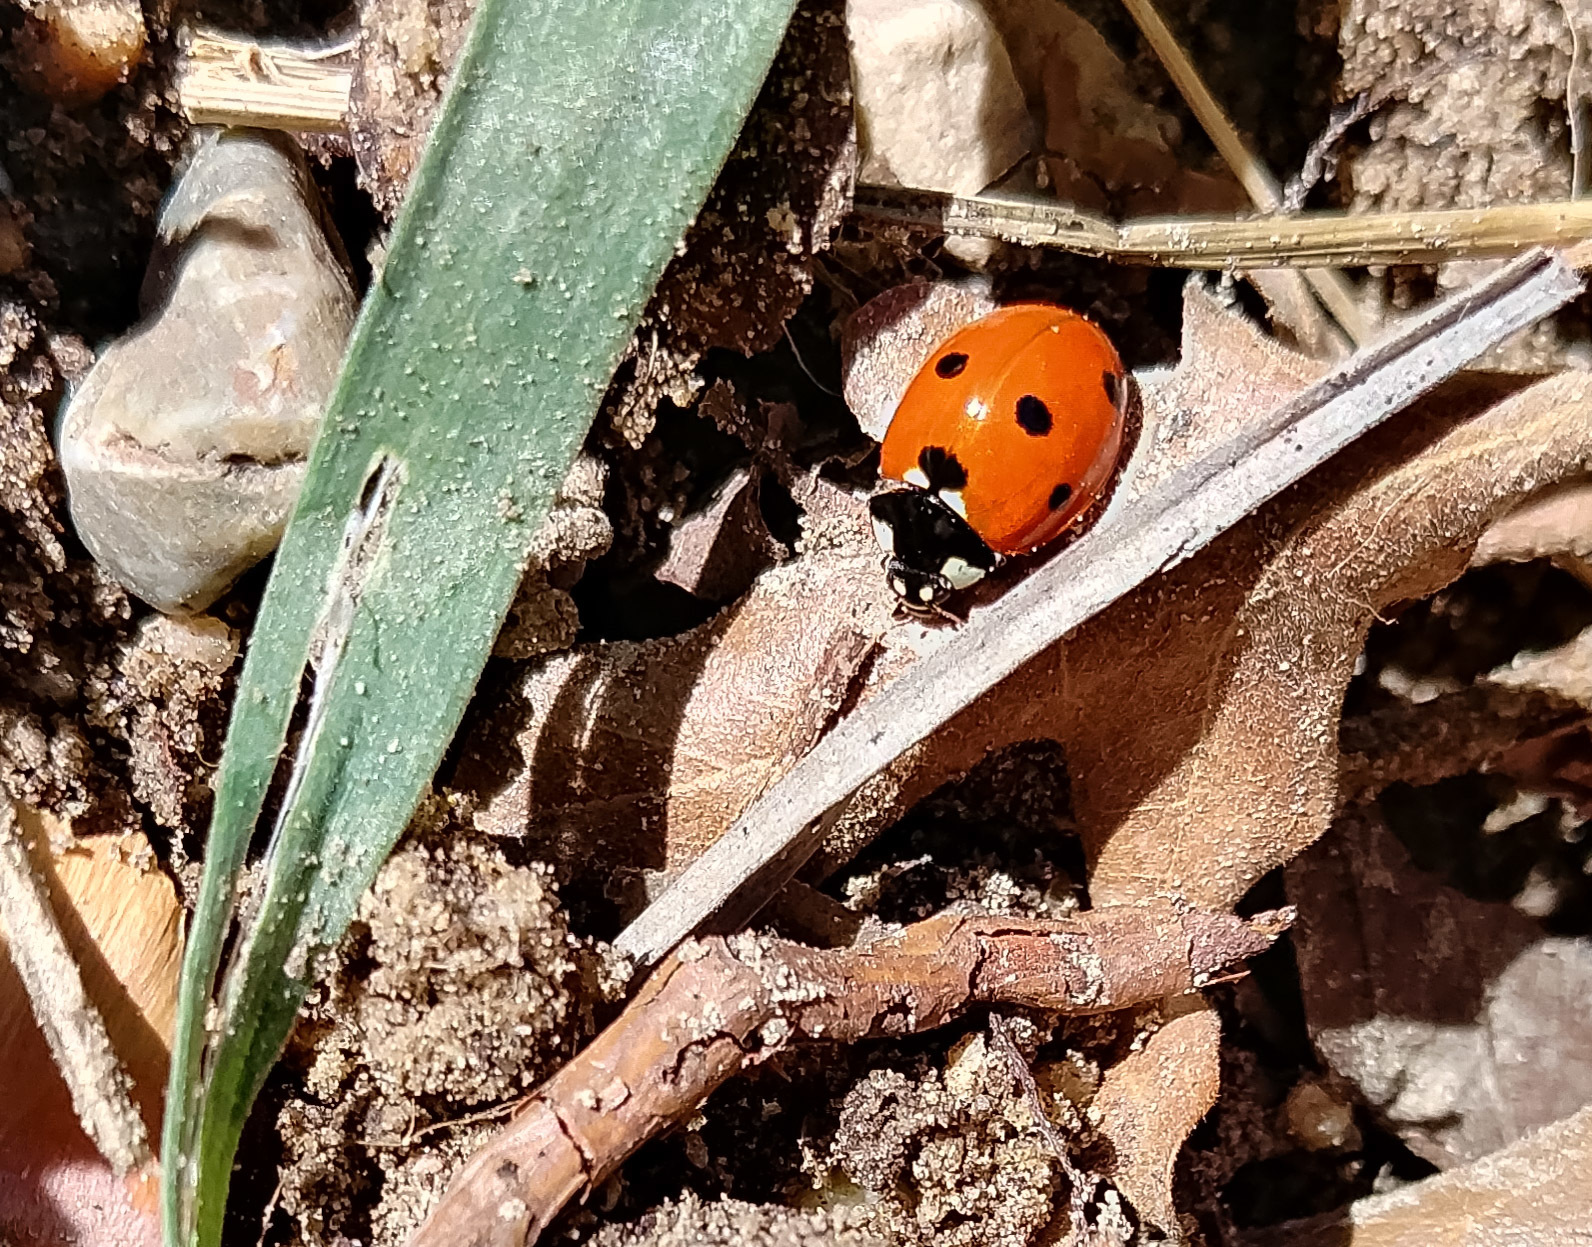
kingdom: Animalia
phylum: Arthropoda
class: Insecta
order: Coleoptera
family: Coccinellidae
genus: Coccinella
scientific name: Coccinella septempunctata
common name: Sevenspotted lady beetle
